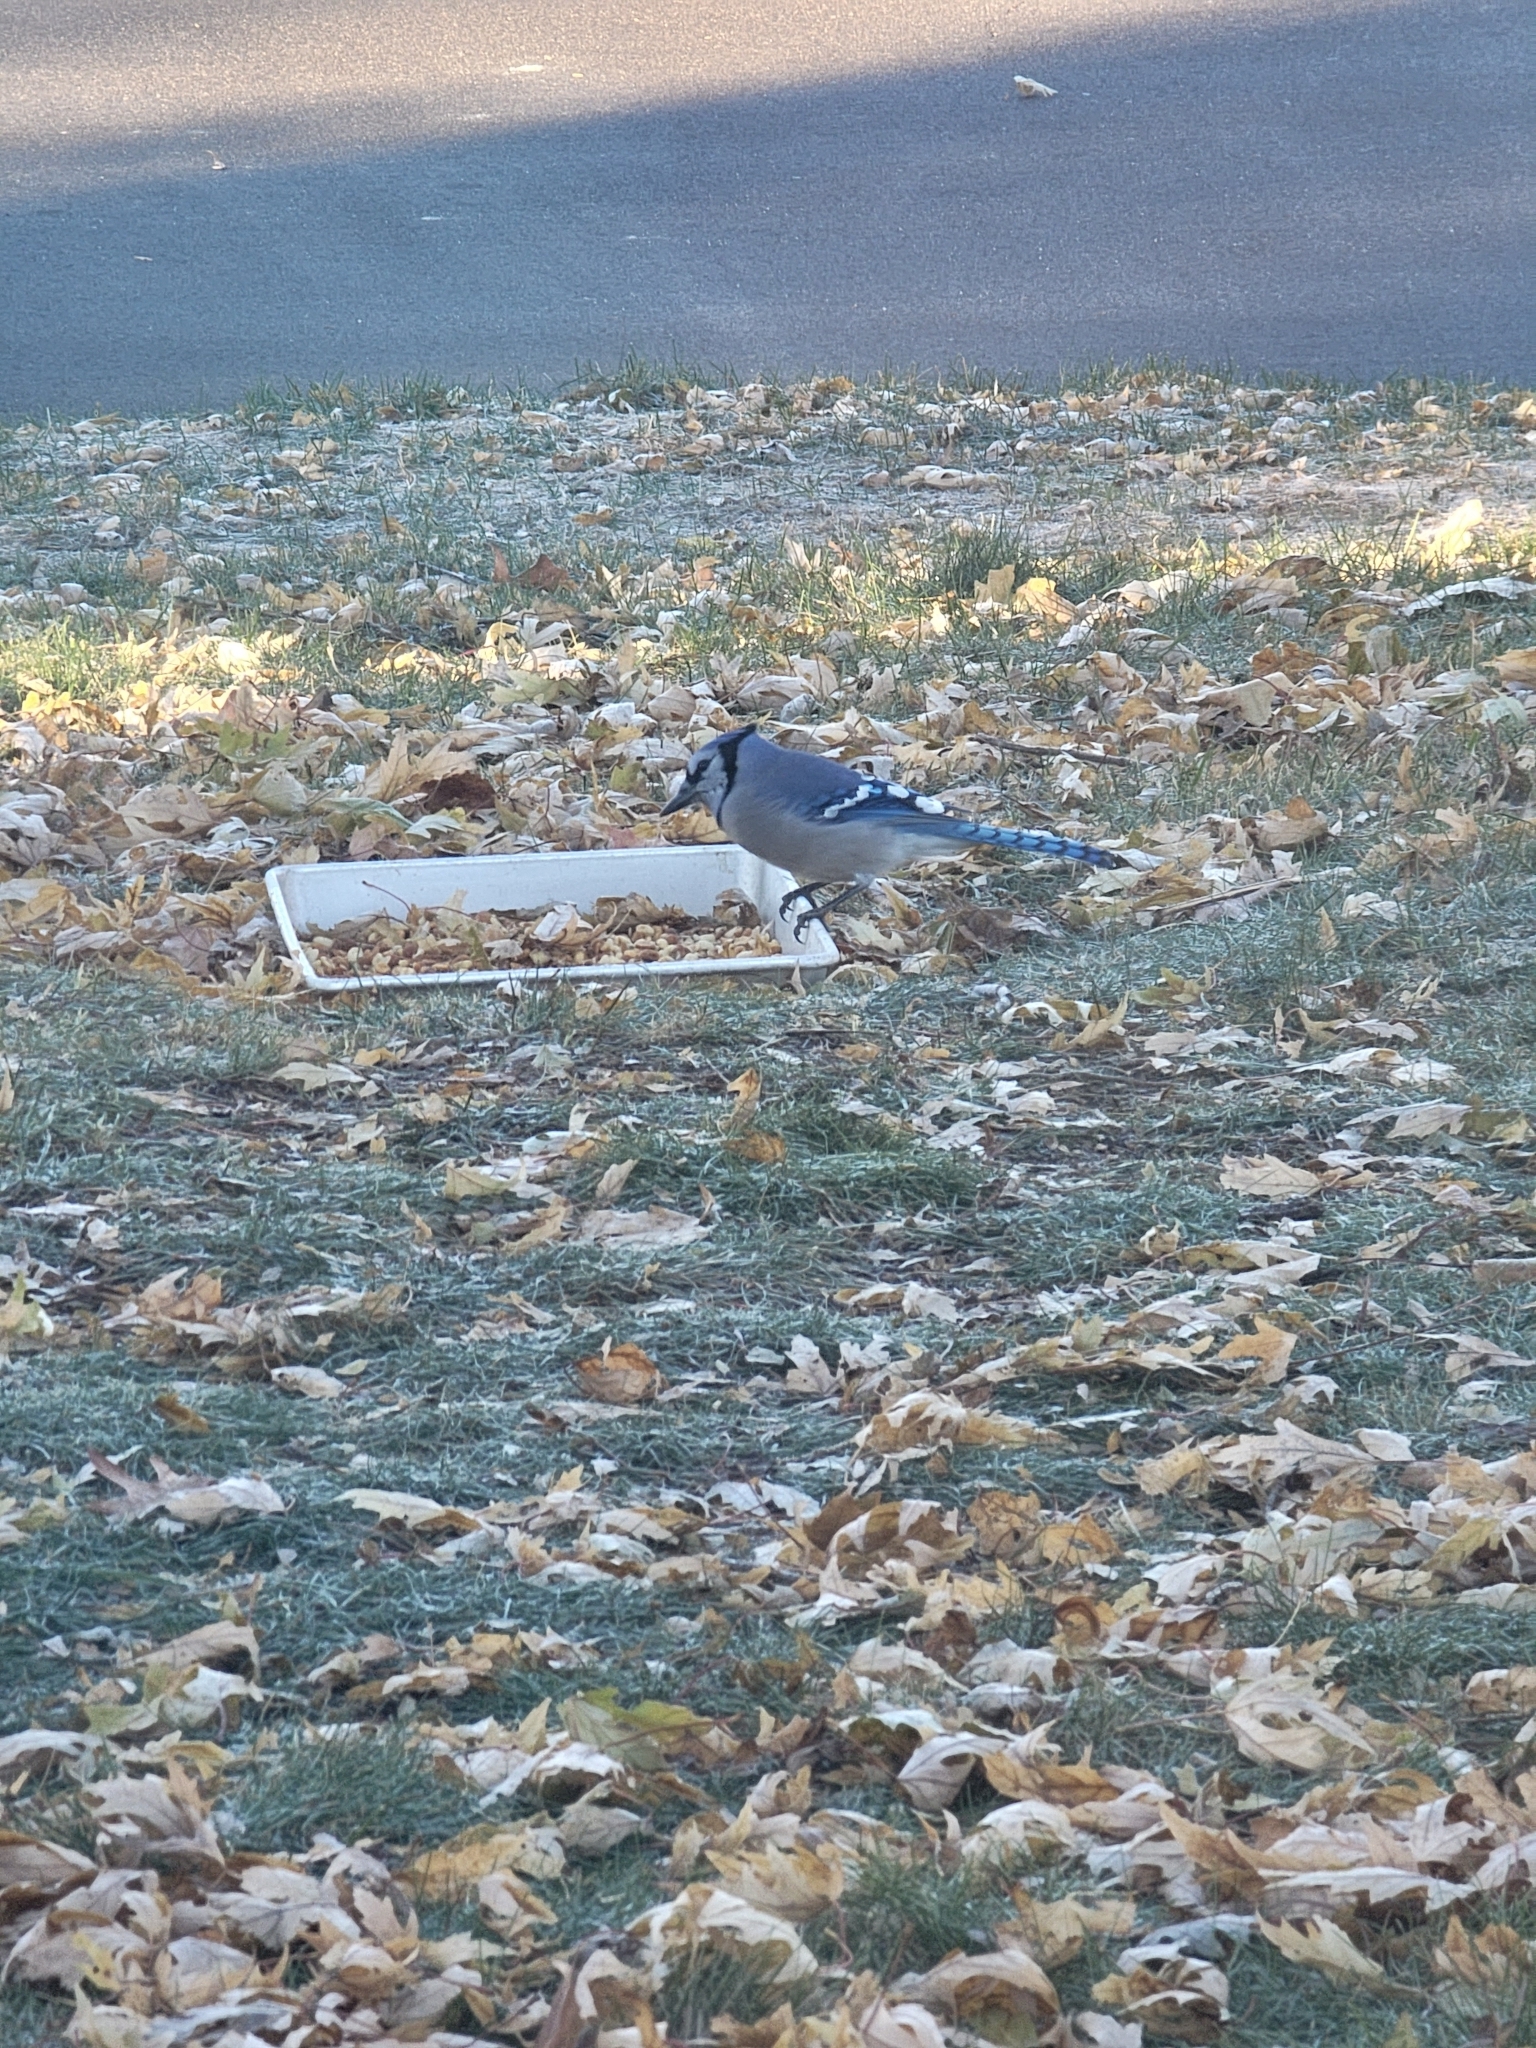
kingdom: Animalia
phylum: Chordata
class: Aves
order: Passeriformes
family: Corvidae
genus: Cyanocitta
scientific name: Cyanocitta cristata
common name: Blue jay
